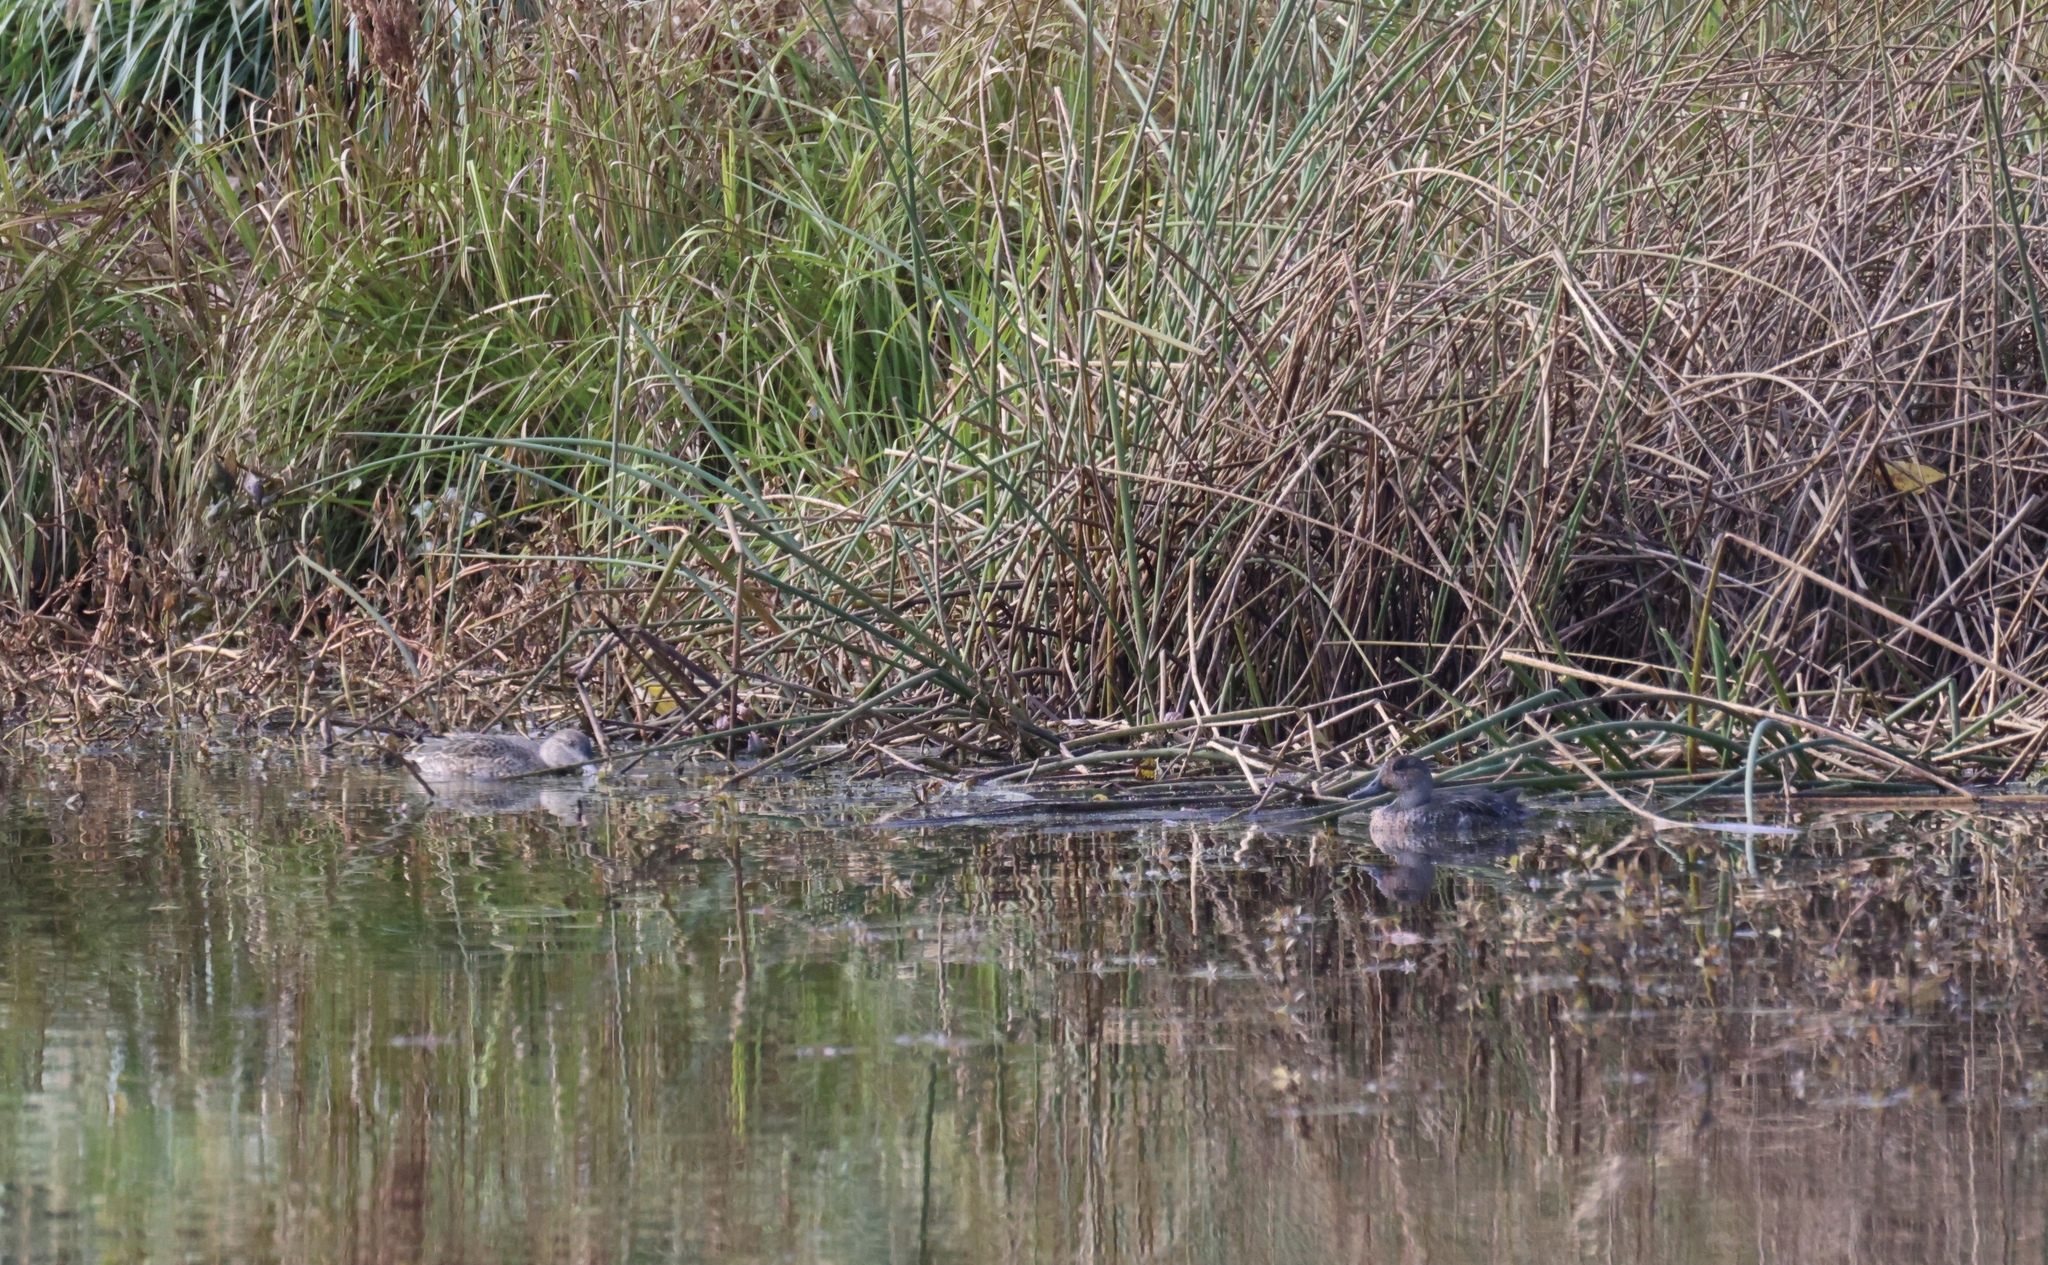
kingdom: Animalia
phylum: Chordata
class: Aves
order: Anseriformes
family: Anatidae
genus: Anas
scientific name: Anas crecca
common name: Eurasian teal
